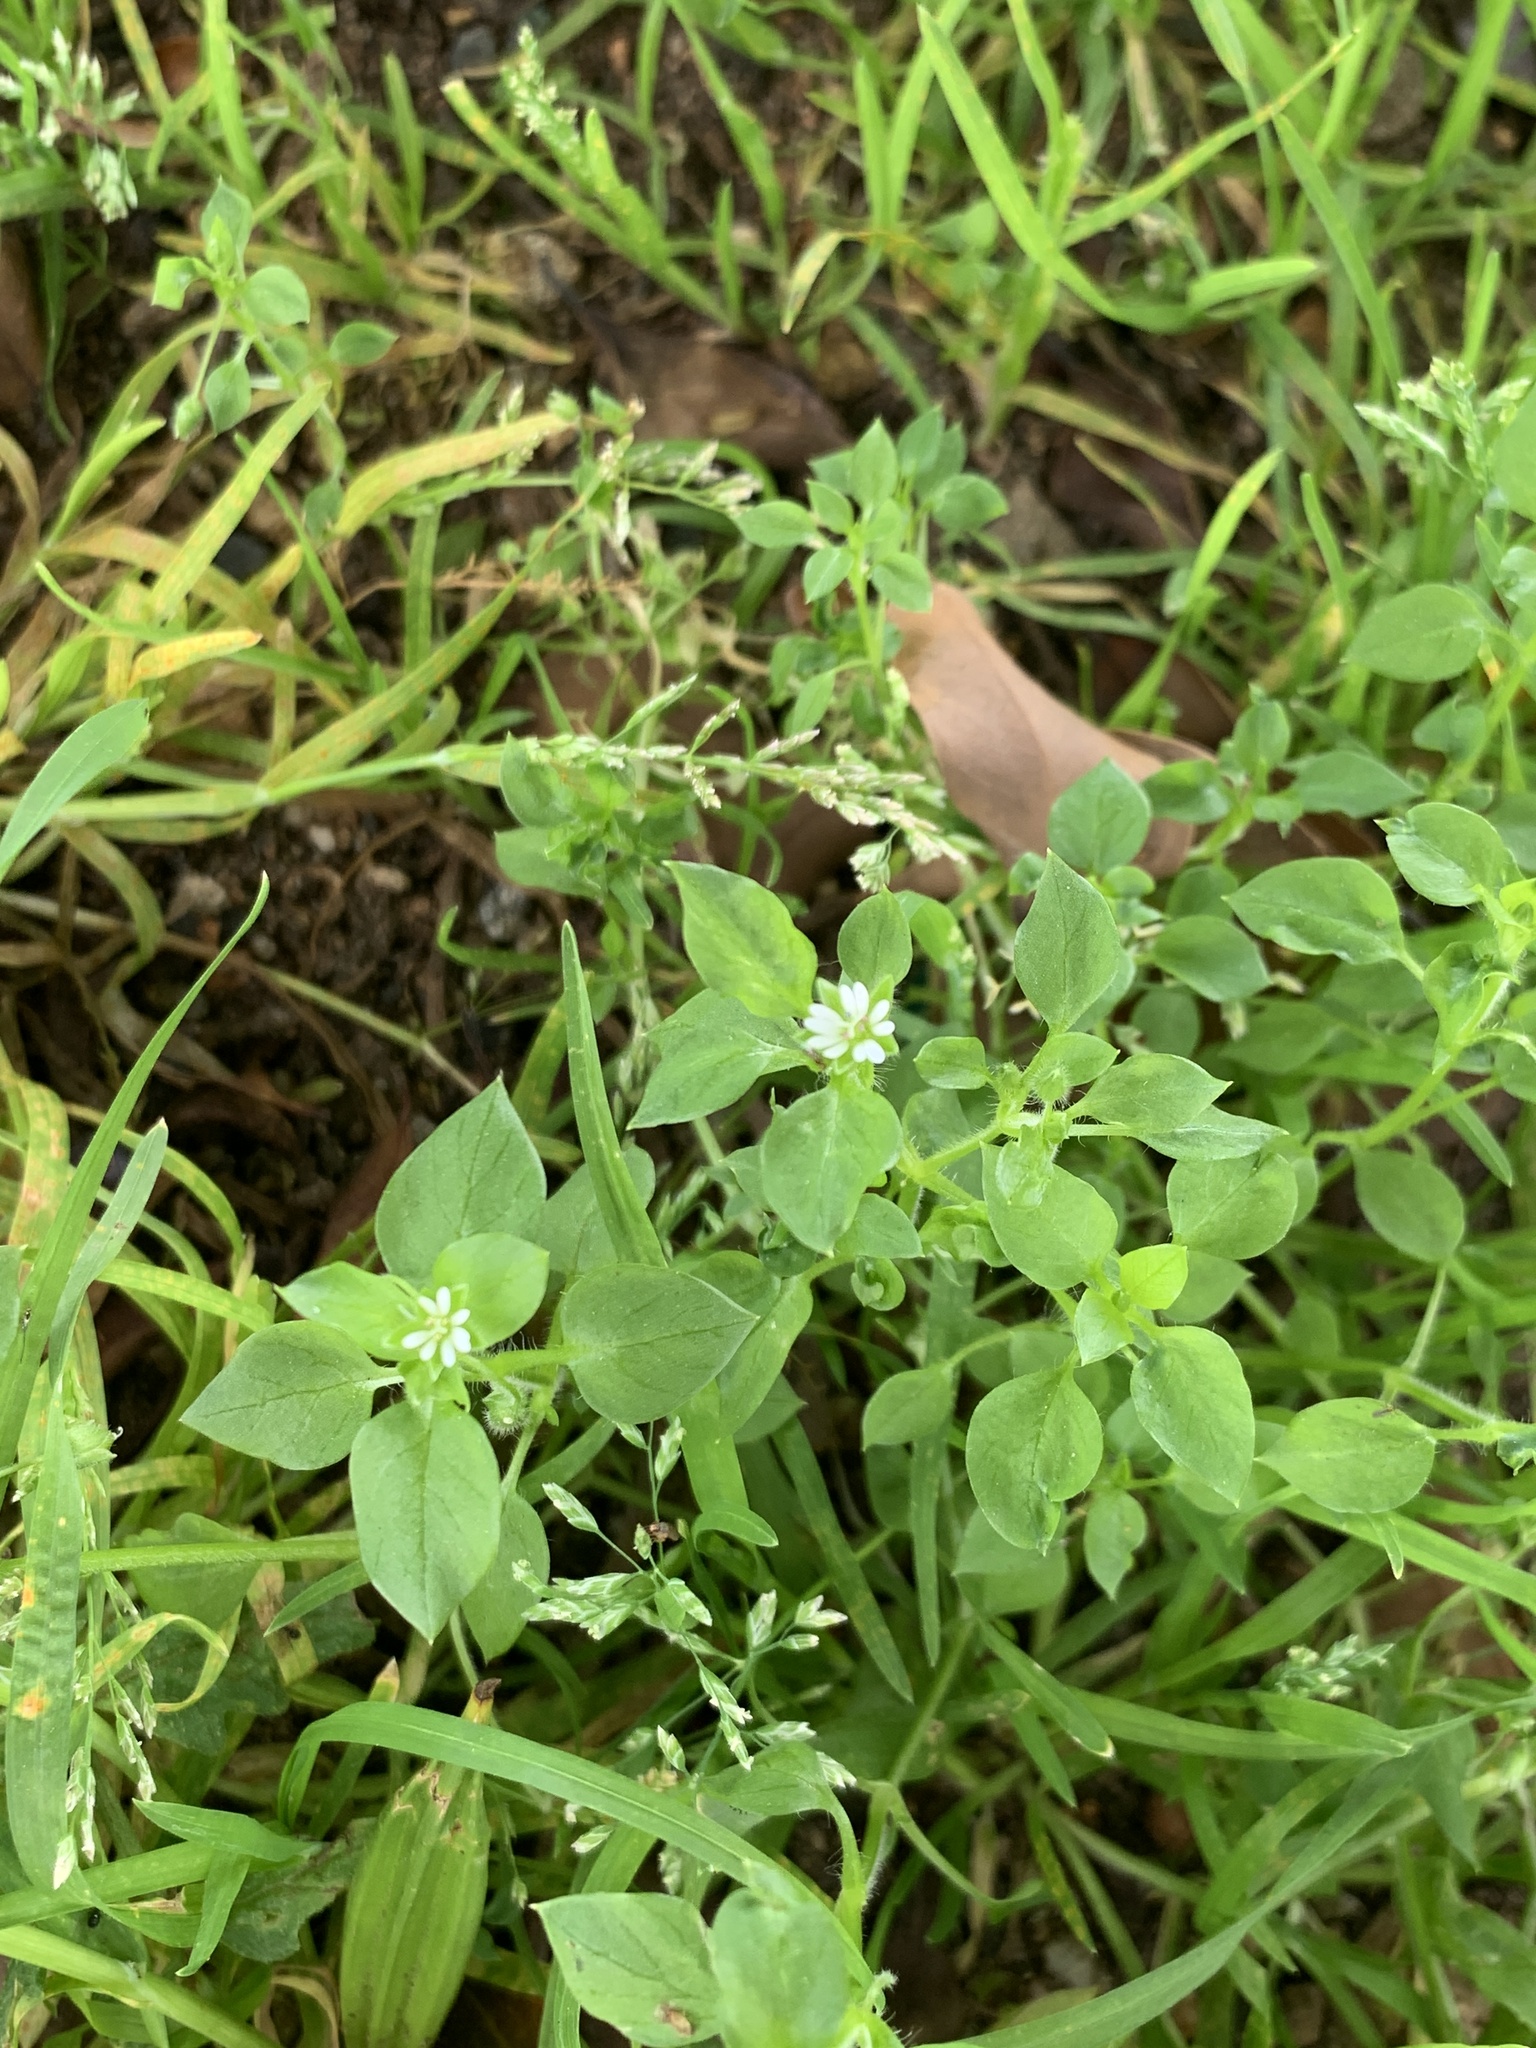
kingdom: Plantae
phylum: Tracheophyta
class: Magnoliopsida
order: Caryophyllales
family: Caryophyllaceae
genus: Stellaria
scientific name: Stellaria media
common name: Common chickweed
